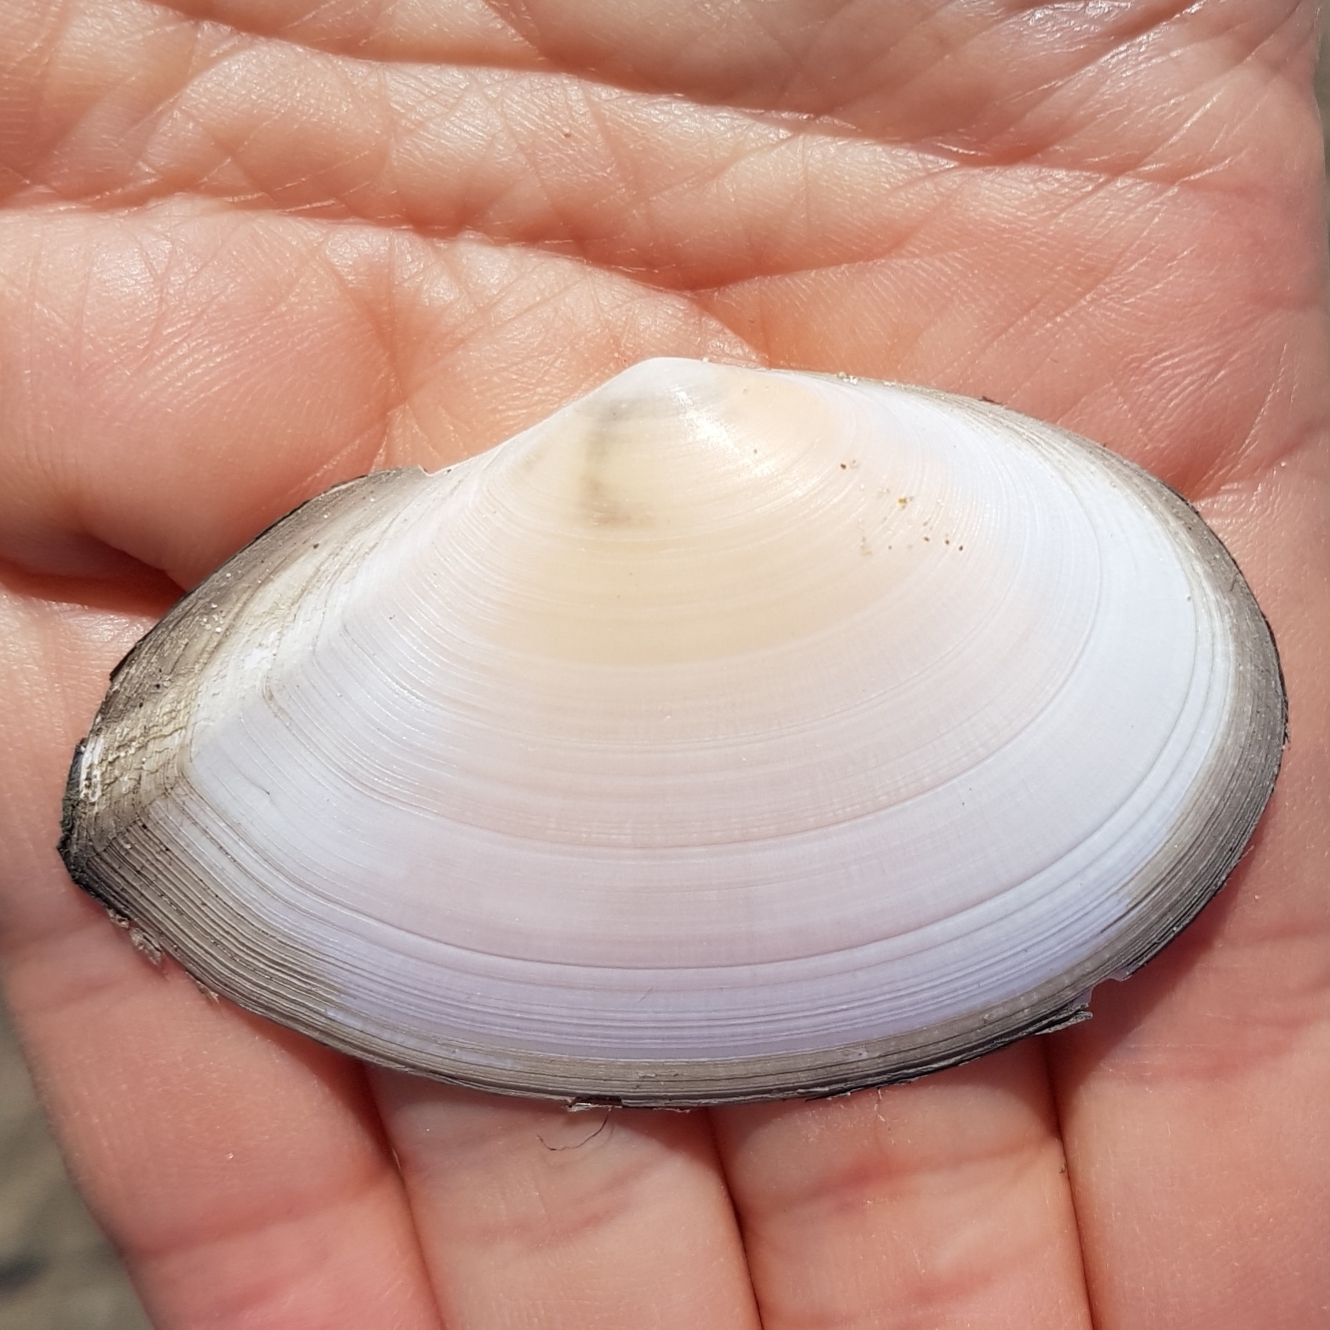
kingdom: Animalia
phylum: Mollusca
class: Bivalvia
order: Cardiida
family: Tellinidae
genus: Peronaea
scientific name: Peronaea planata
